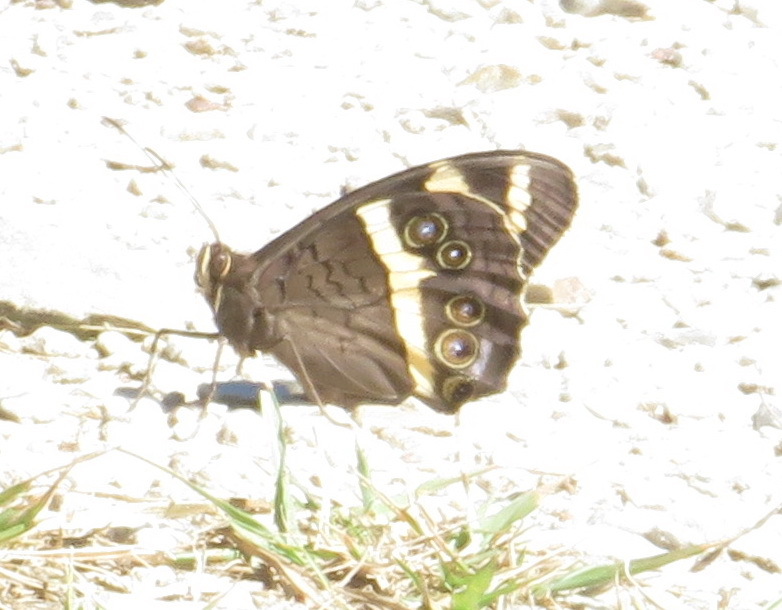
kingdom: Animalia
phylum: Arthropoda
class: Insecta
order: Lepidoptera
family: Nymphalidae
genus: Meneris
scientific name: Meneris Aeropetes tulbaghia
